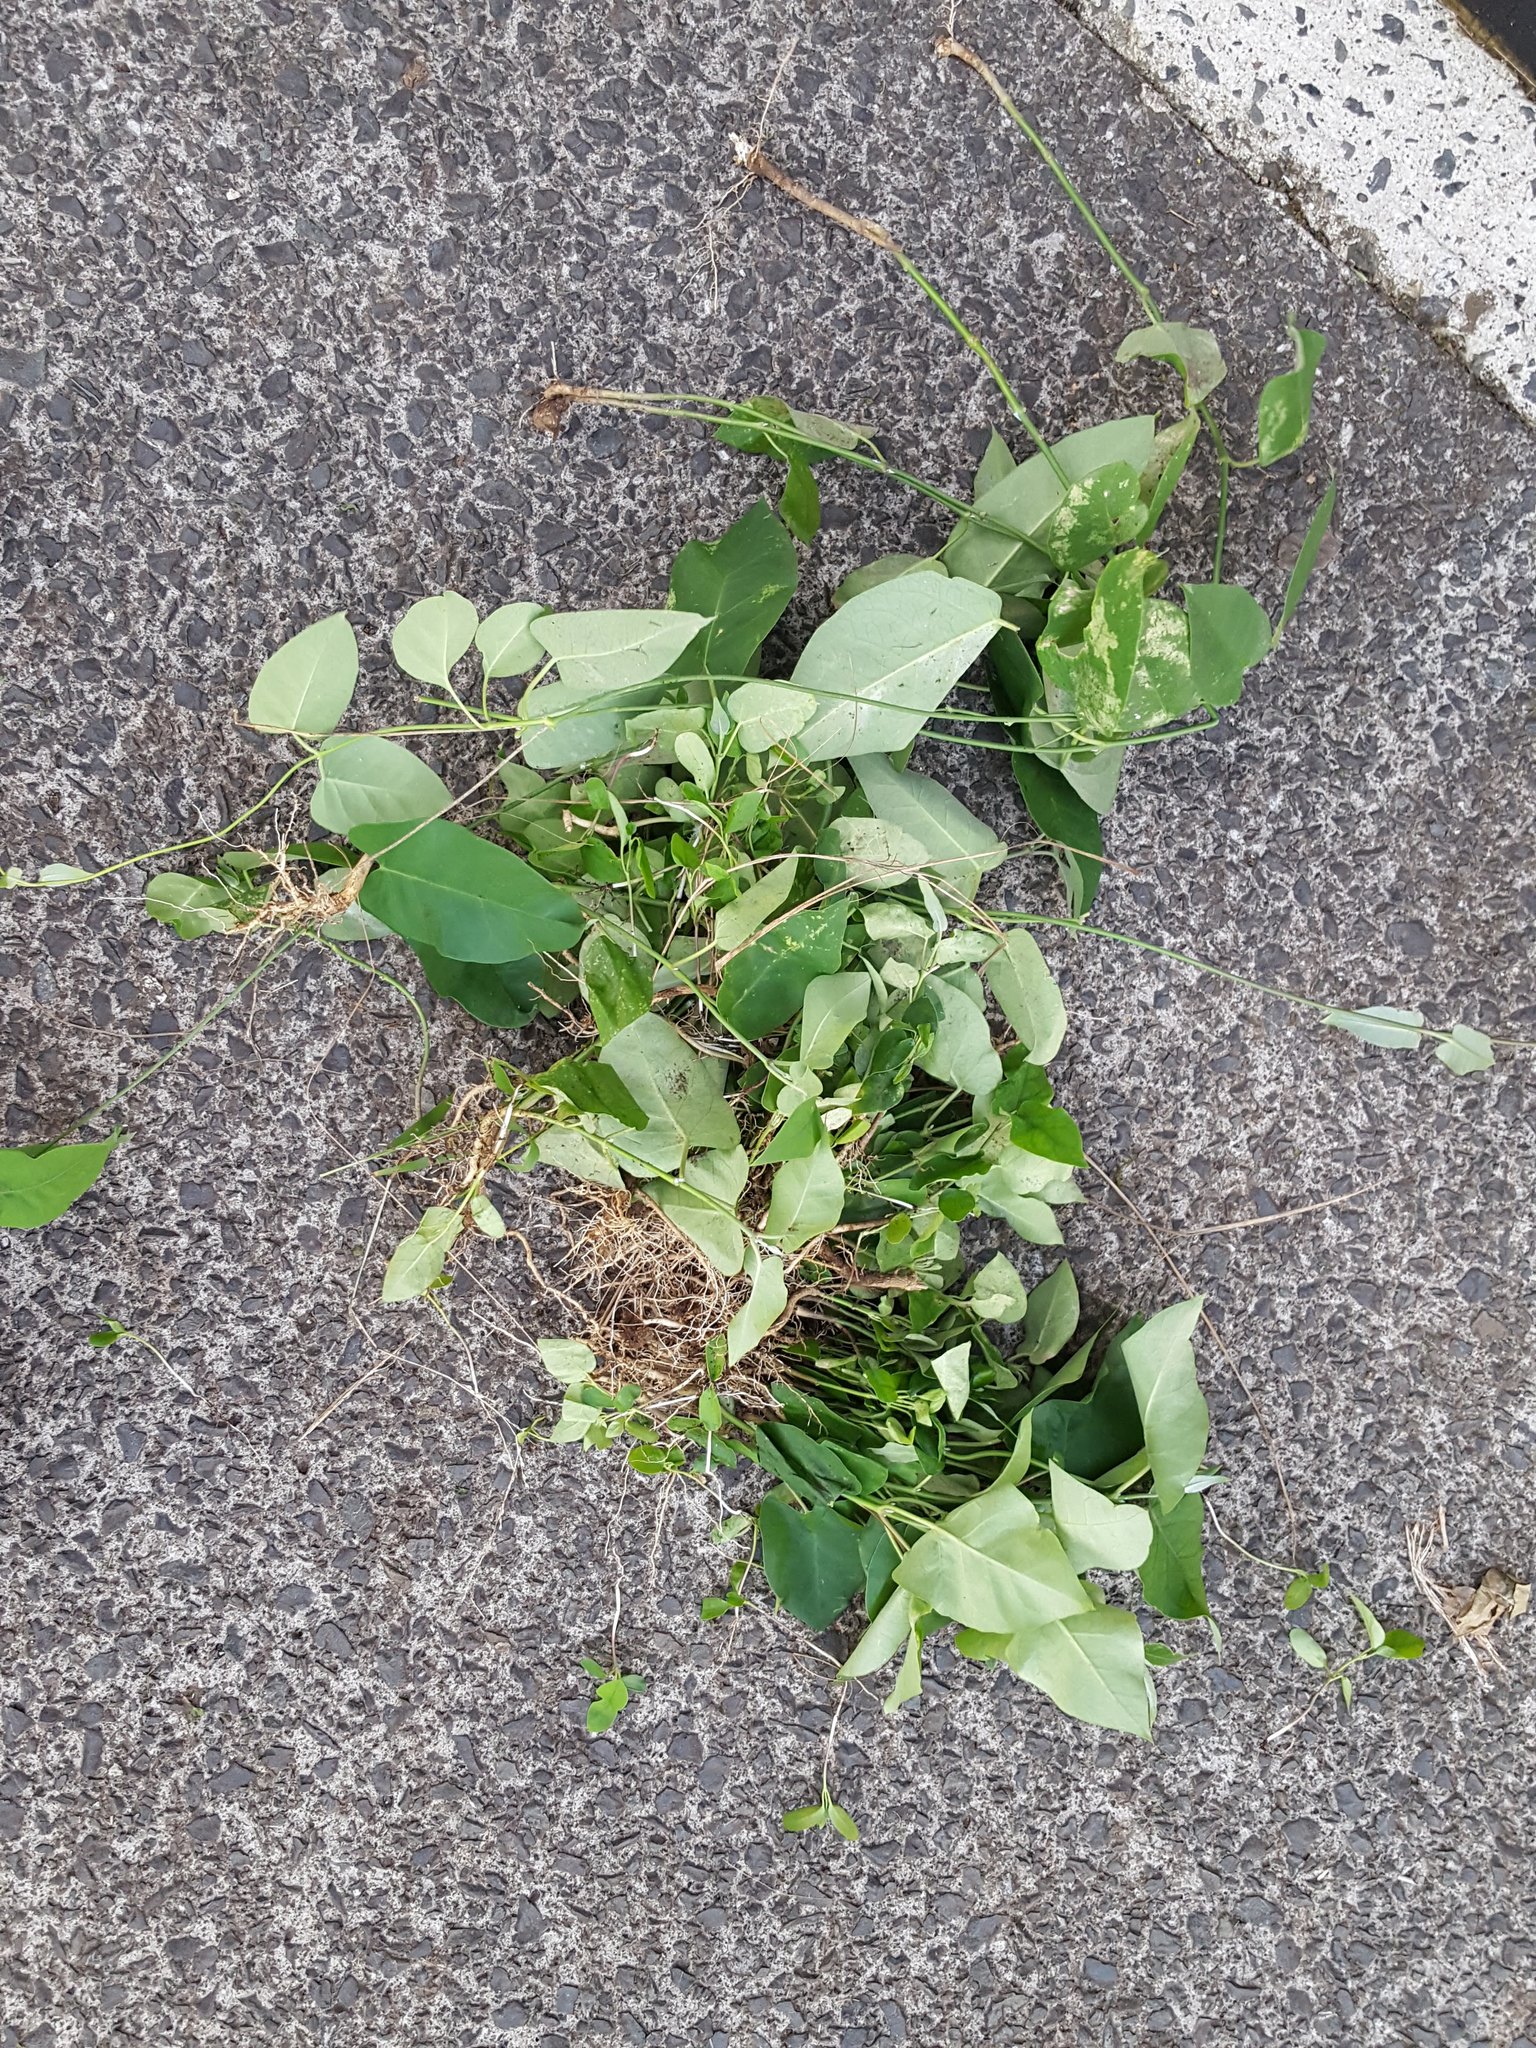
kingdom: Plantae
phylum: Tracheophyta
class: Magnoliopsida
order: Gentianales
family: Apocynaceae
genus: Araujia
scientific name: Araujia sericifera
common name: White bladderflower
